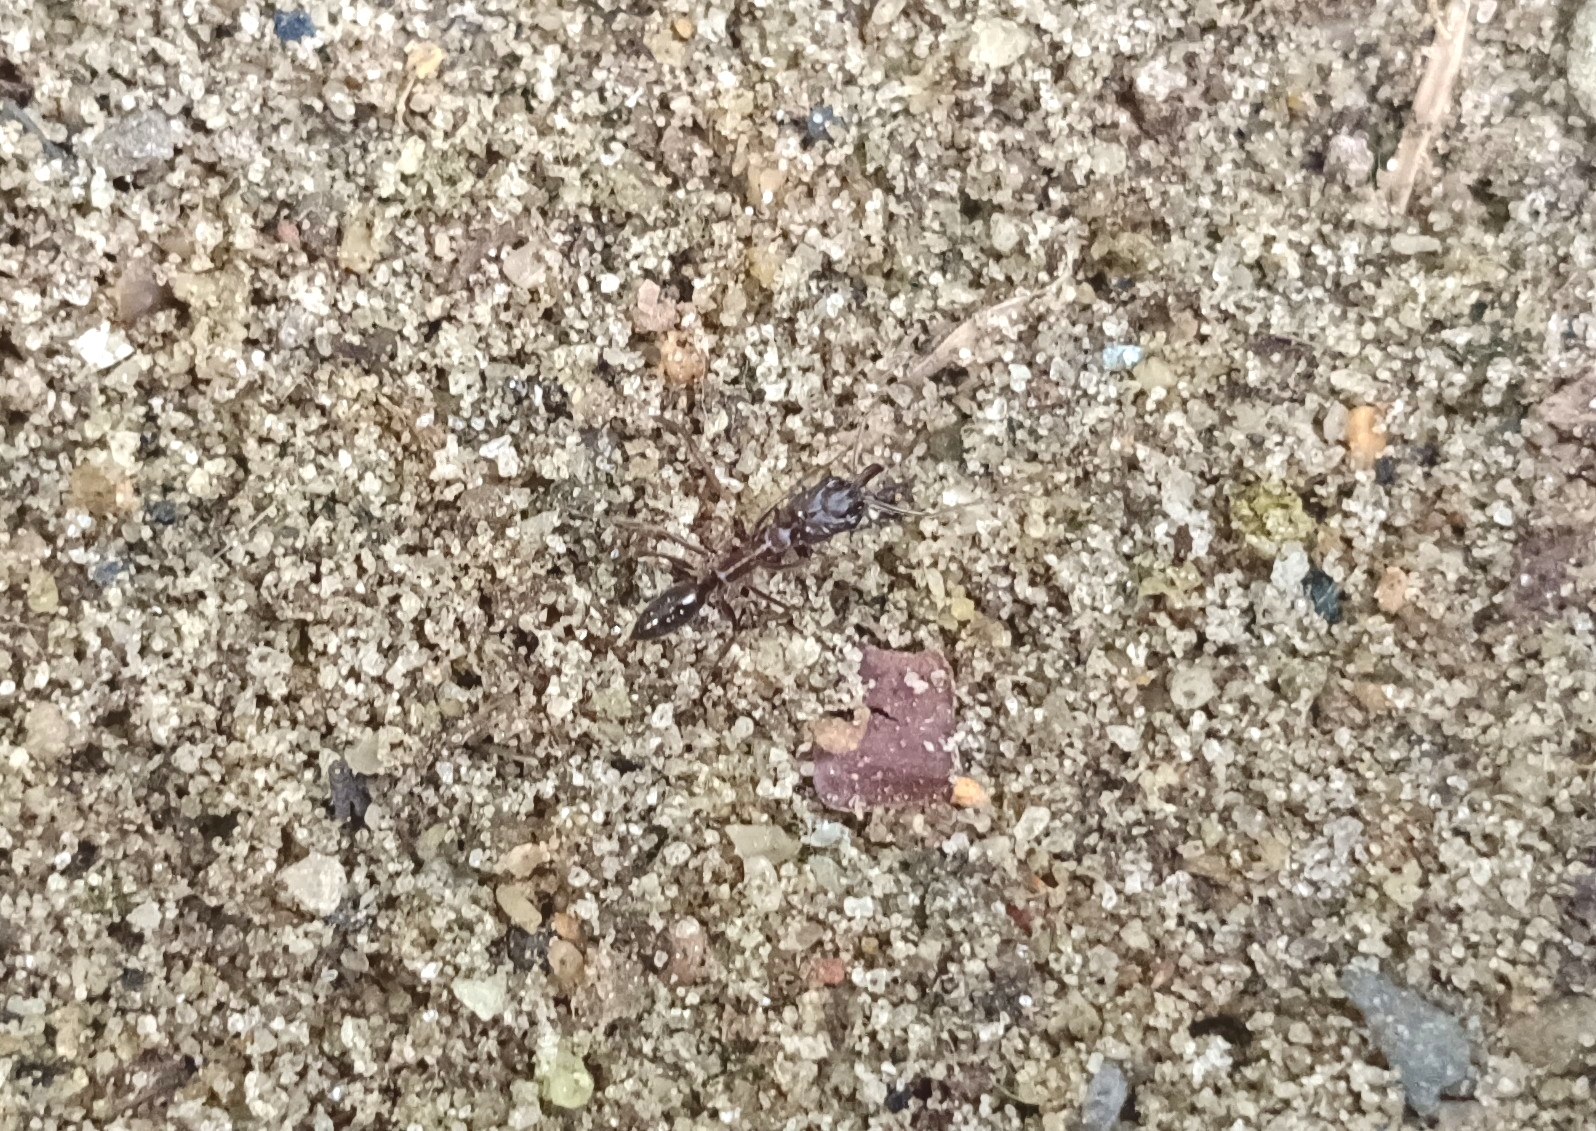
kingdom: Animalia
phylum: Arthropoda
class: Insecta
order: Hymenoptera
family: Formicidae
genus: Odontomachus
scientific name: Odontomachus simillimus
